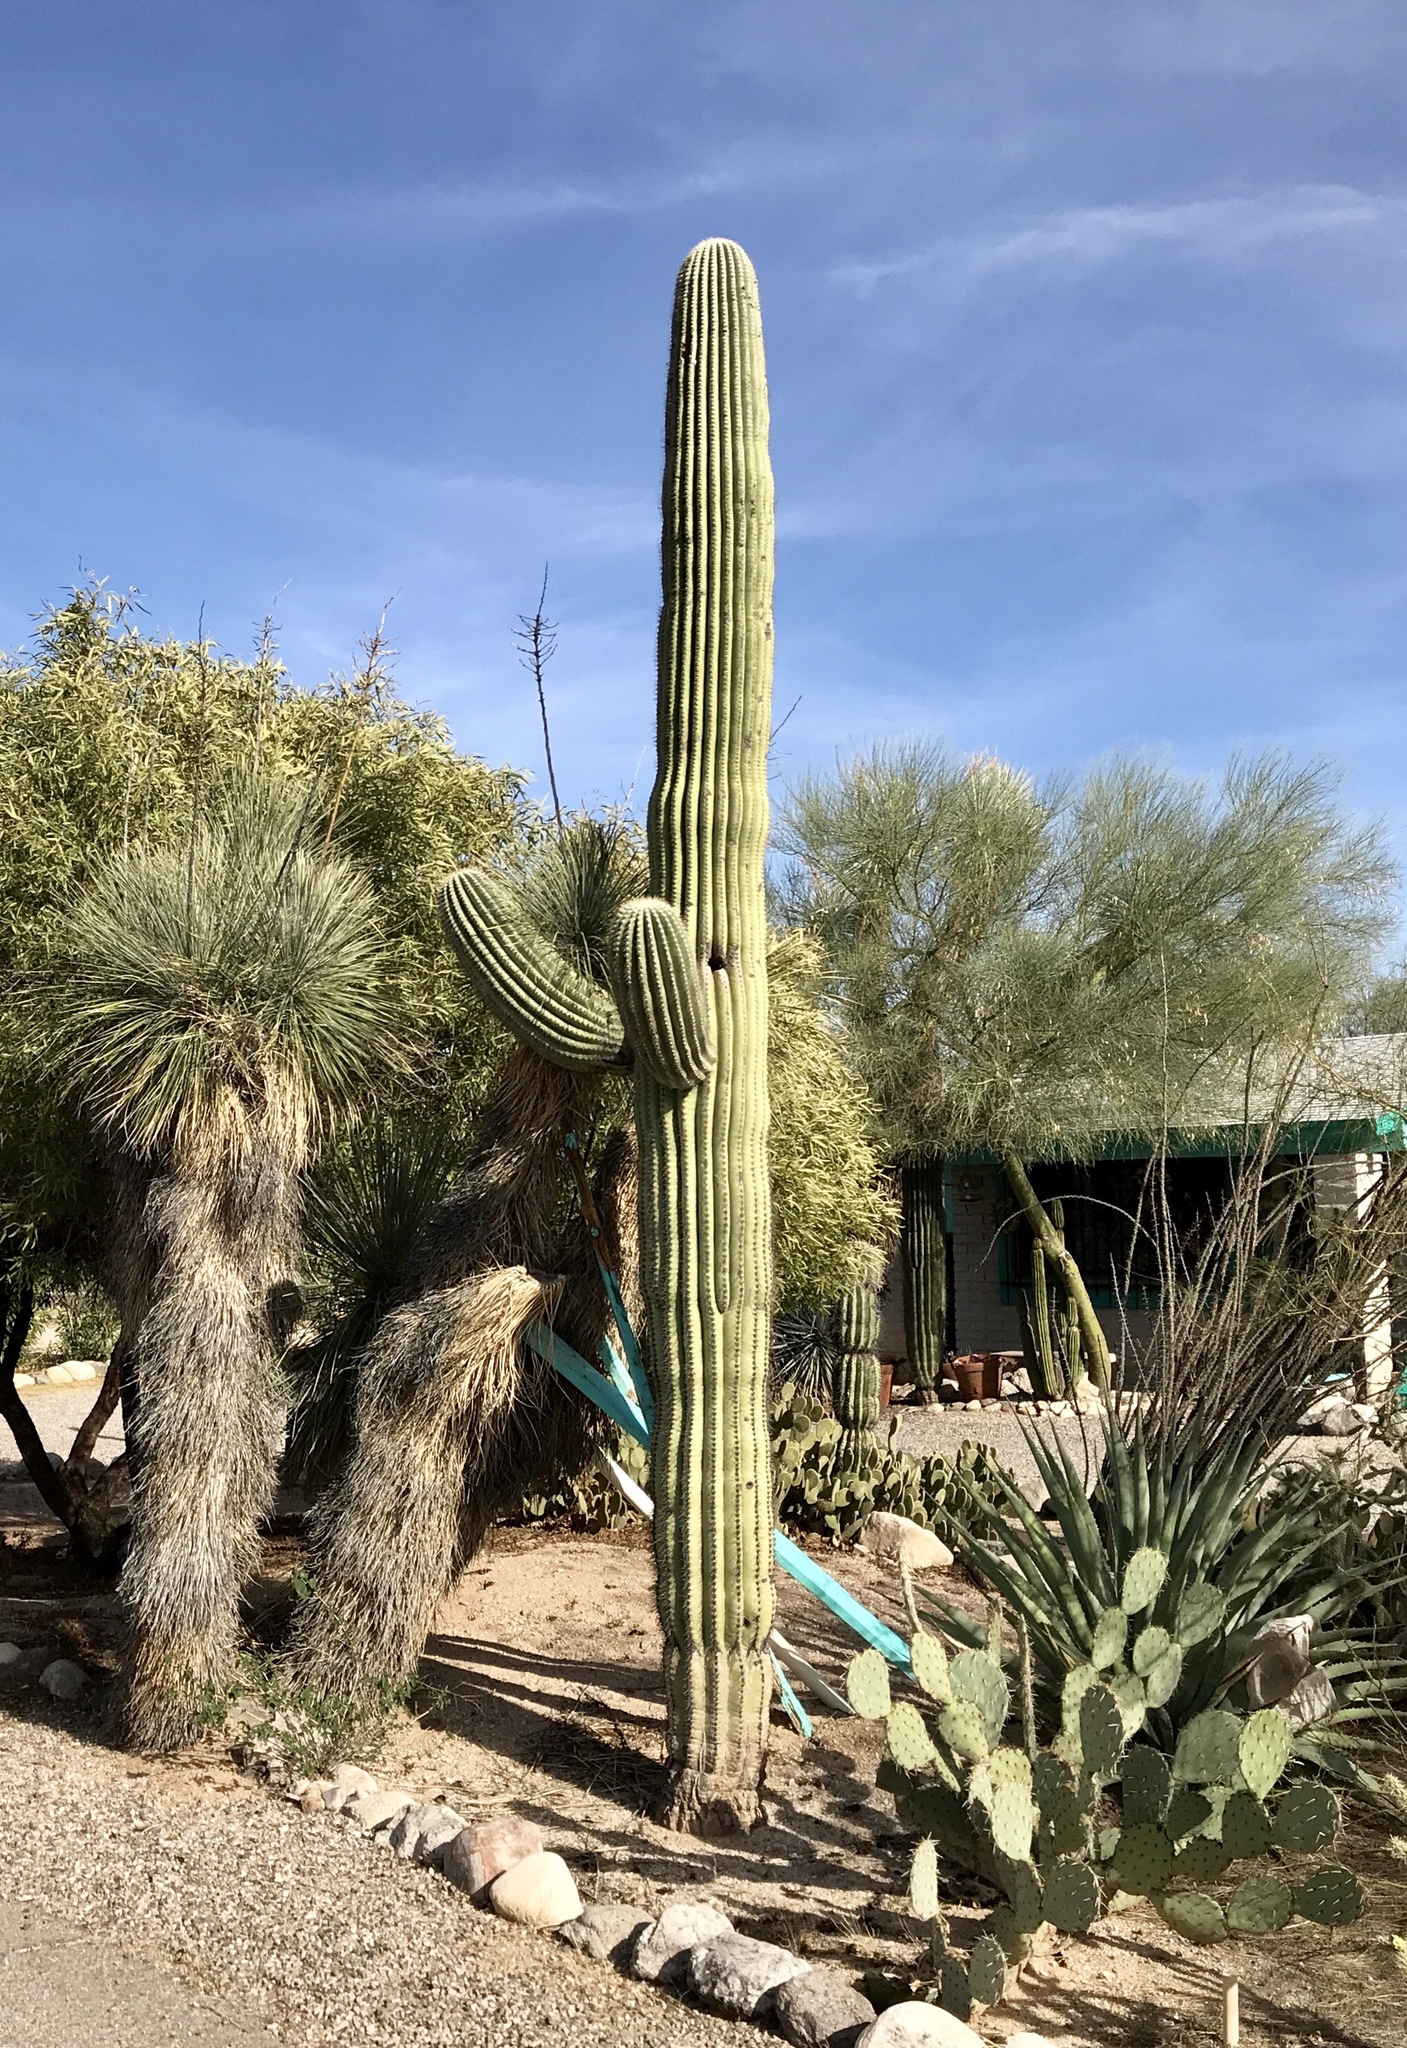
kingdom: Plantae
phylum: Tracheophyta
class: Magnoliopsida
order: Caryophyllales
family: Cactaceae
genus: Carnegiea
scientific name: Carnegiea gigantea
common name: Saguaro
